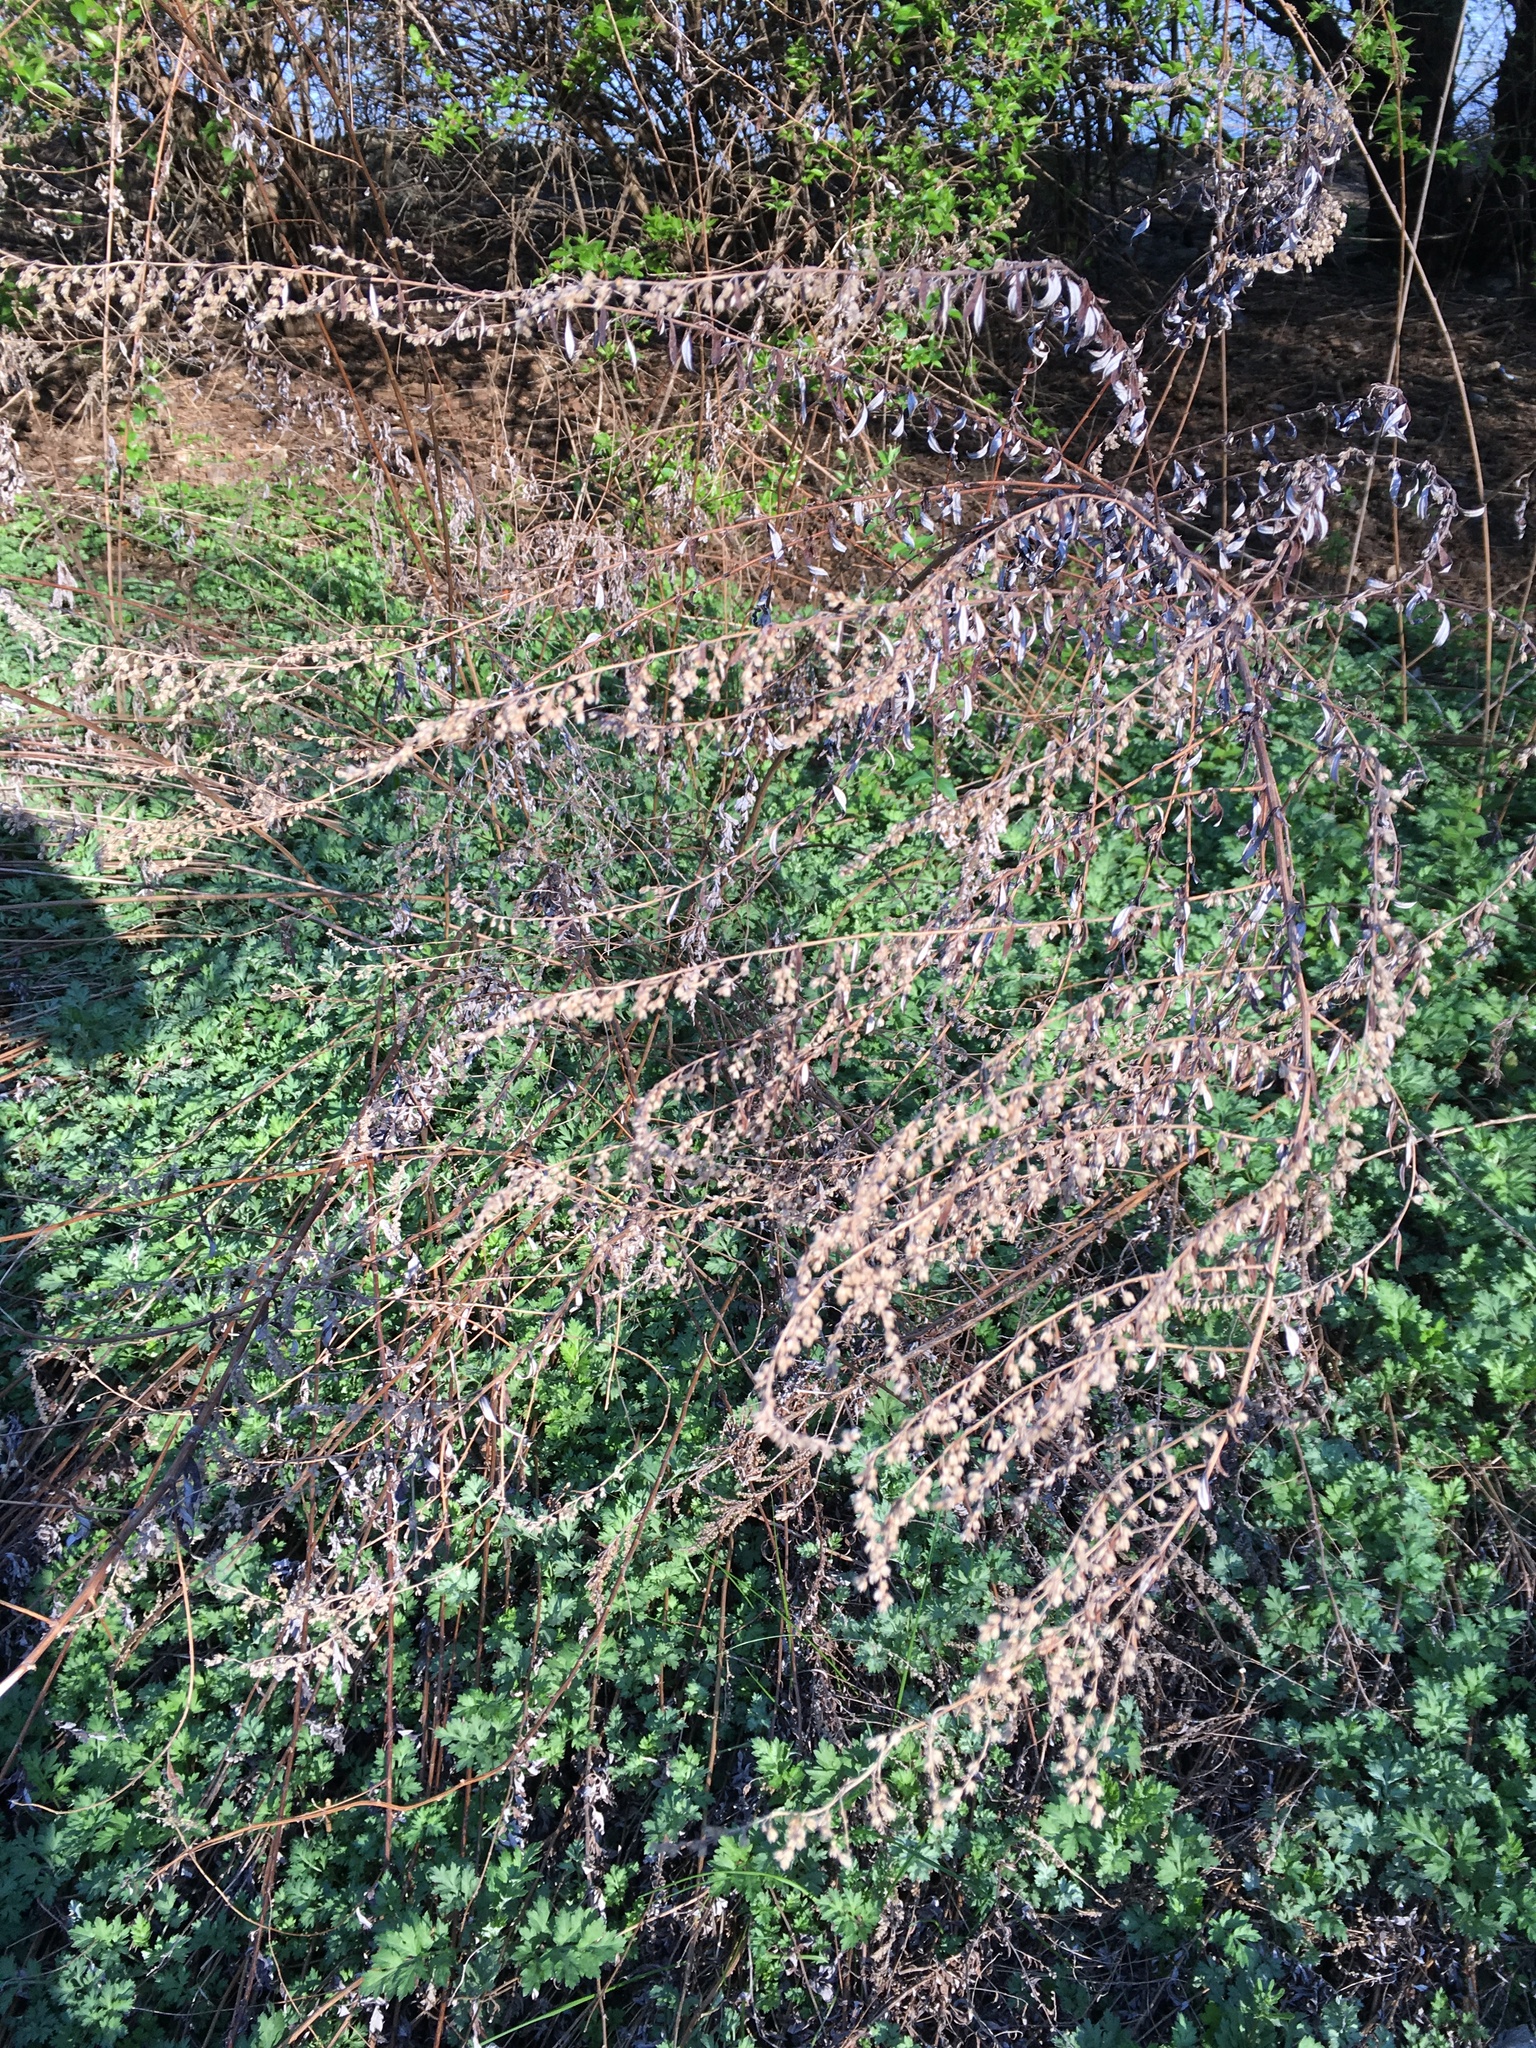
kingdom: Plantae
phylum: Tracheophyta
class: Magnoliopsida
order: Asterales
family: Asteraceae
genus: Artemisia
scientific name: Artemisia vulgaris
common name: Mugwort
